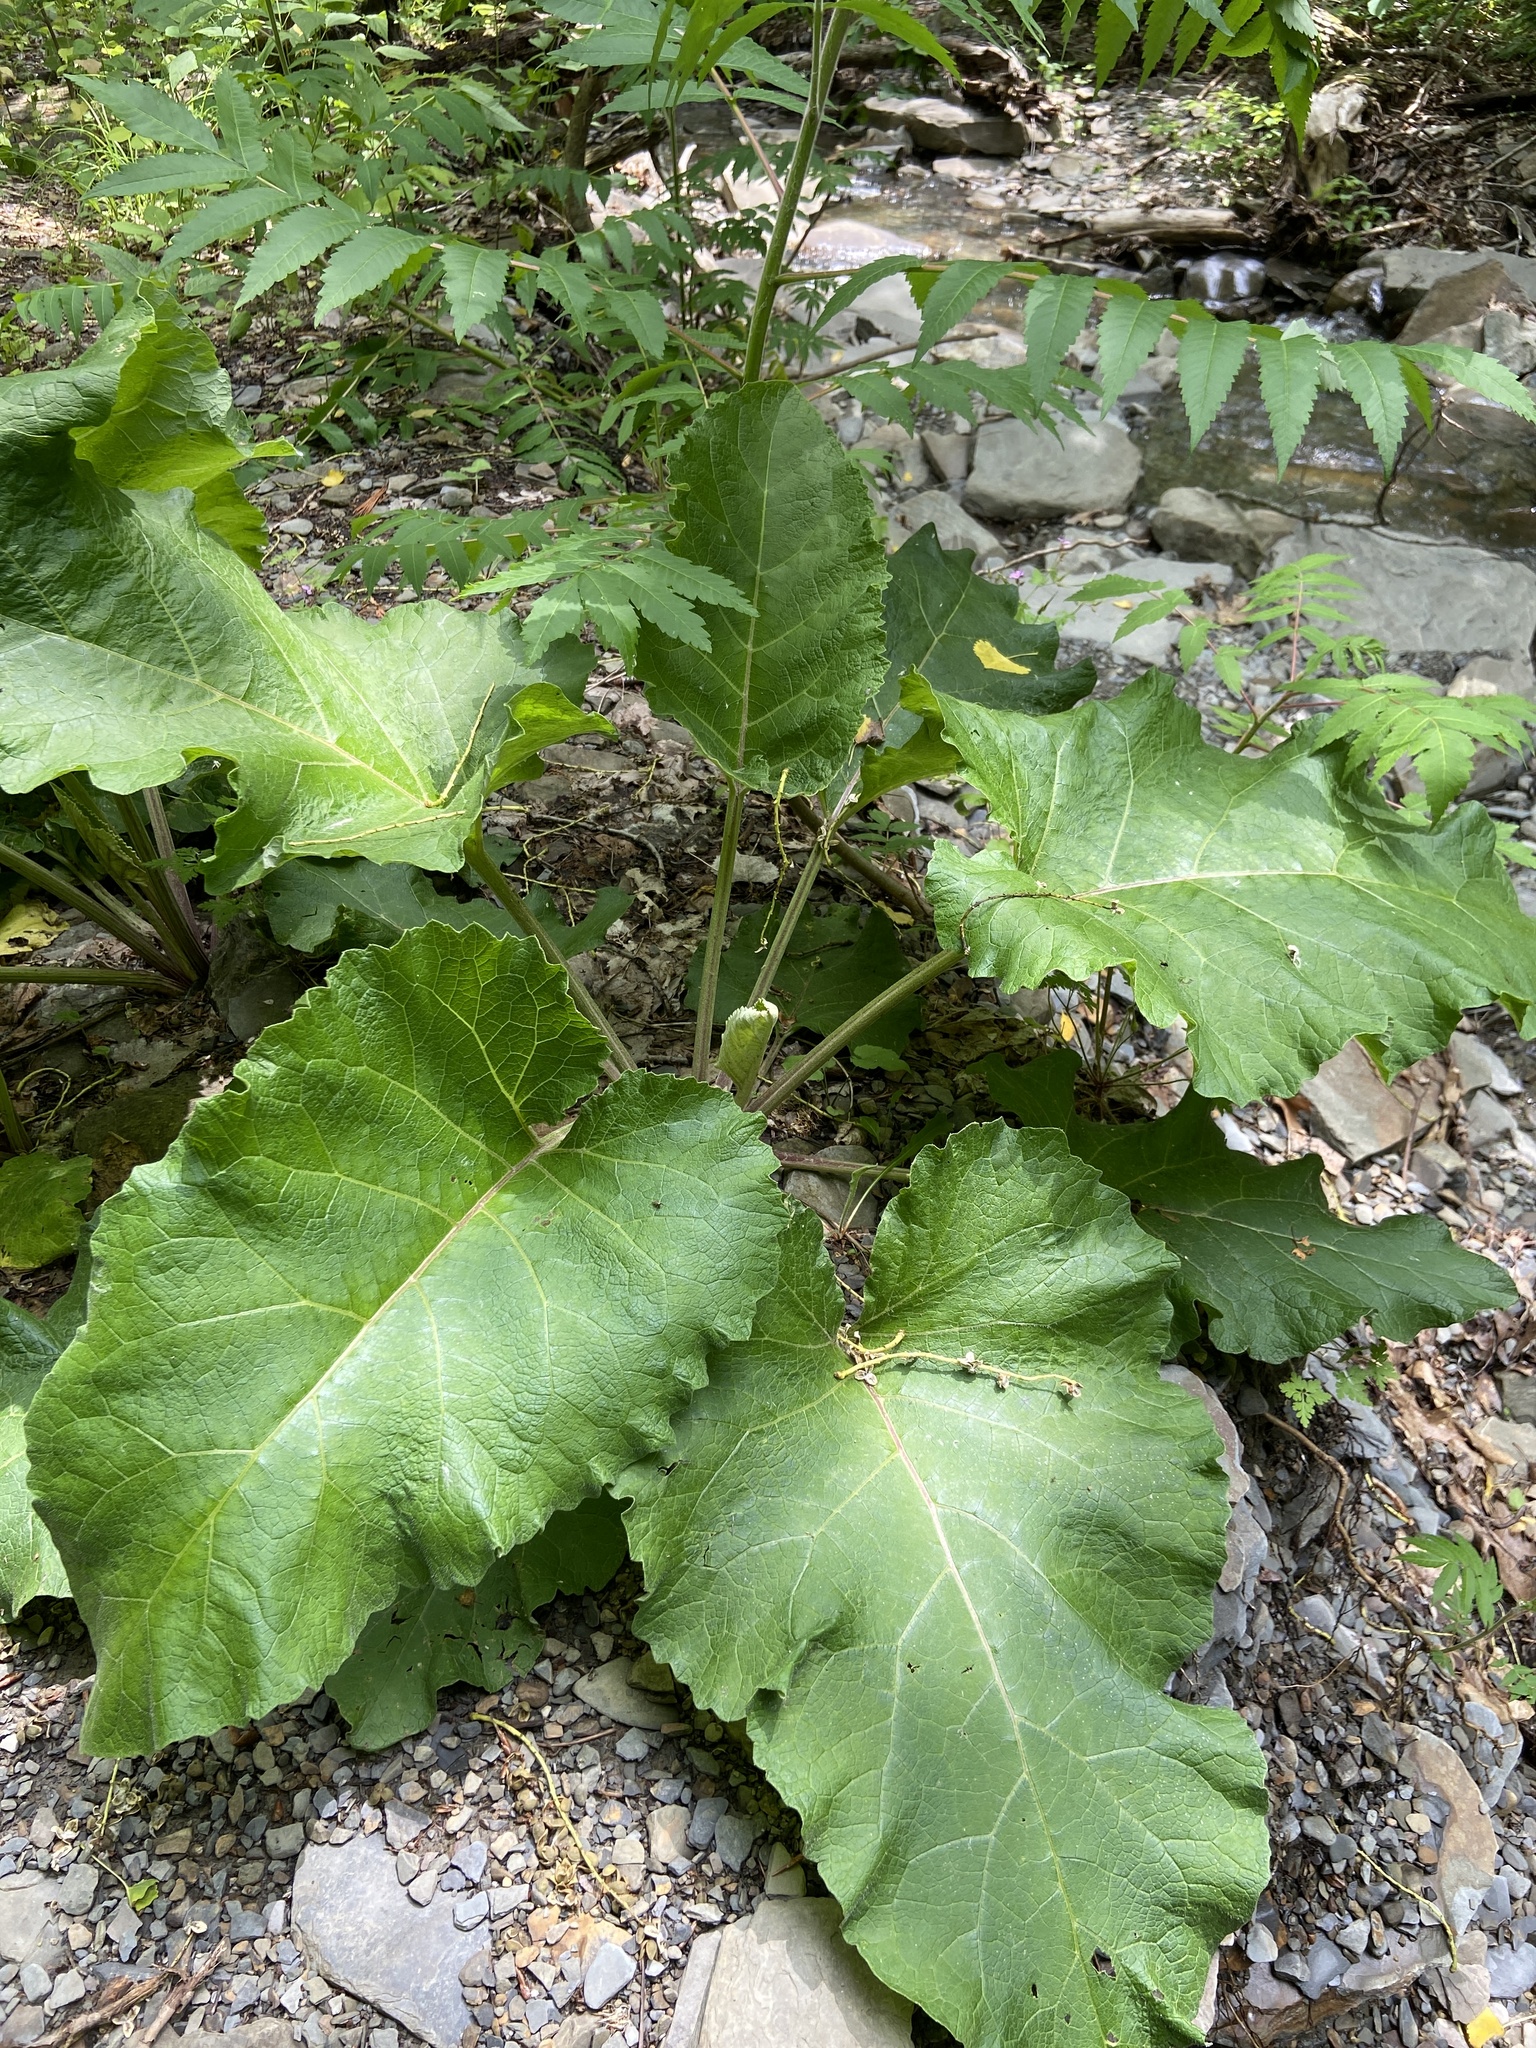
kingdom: Plantae
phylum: Tracheophyta
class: Magnoliopsida
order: Asterales
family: Asteraceae
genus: Arctium
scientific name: Arctium
